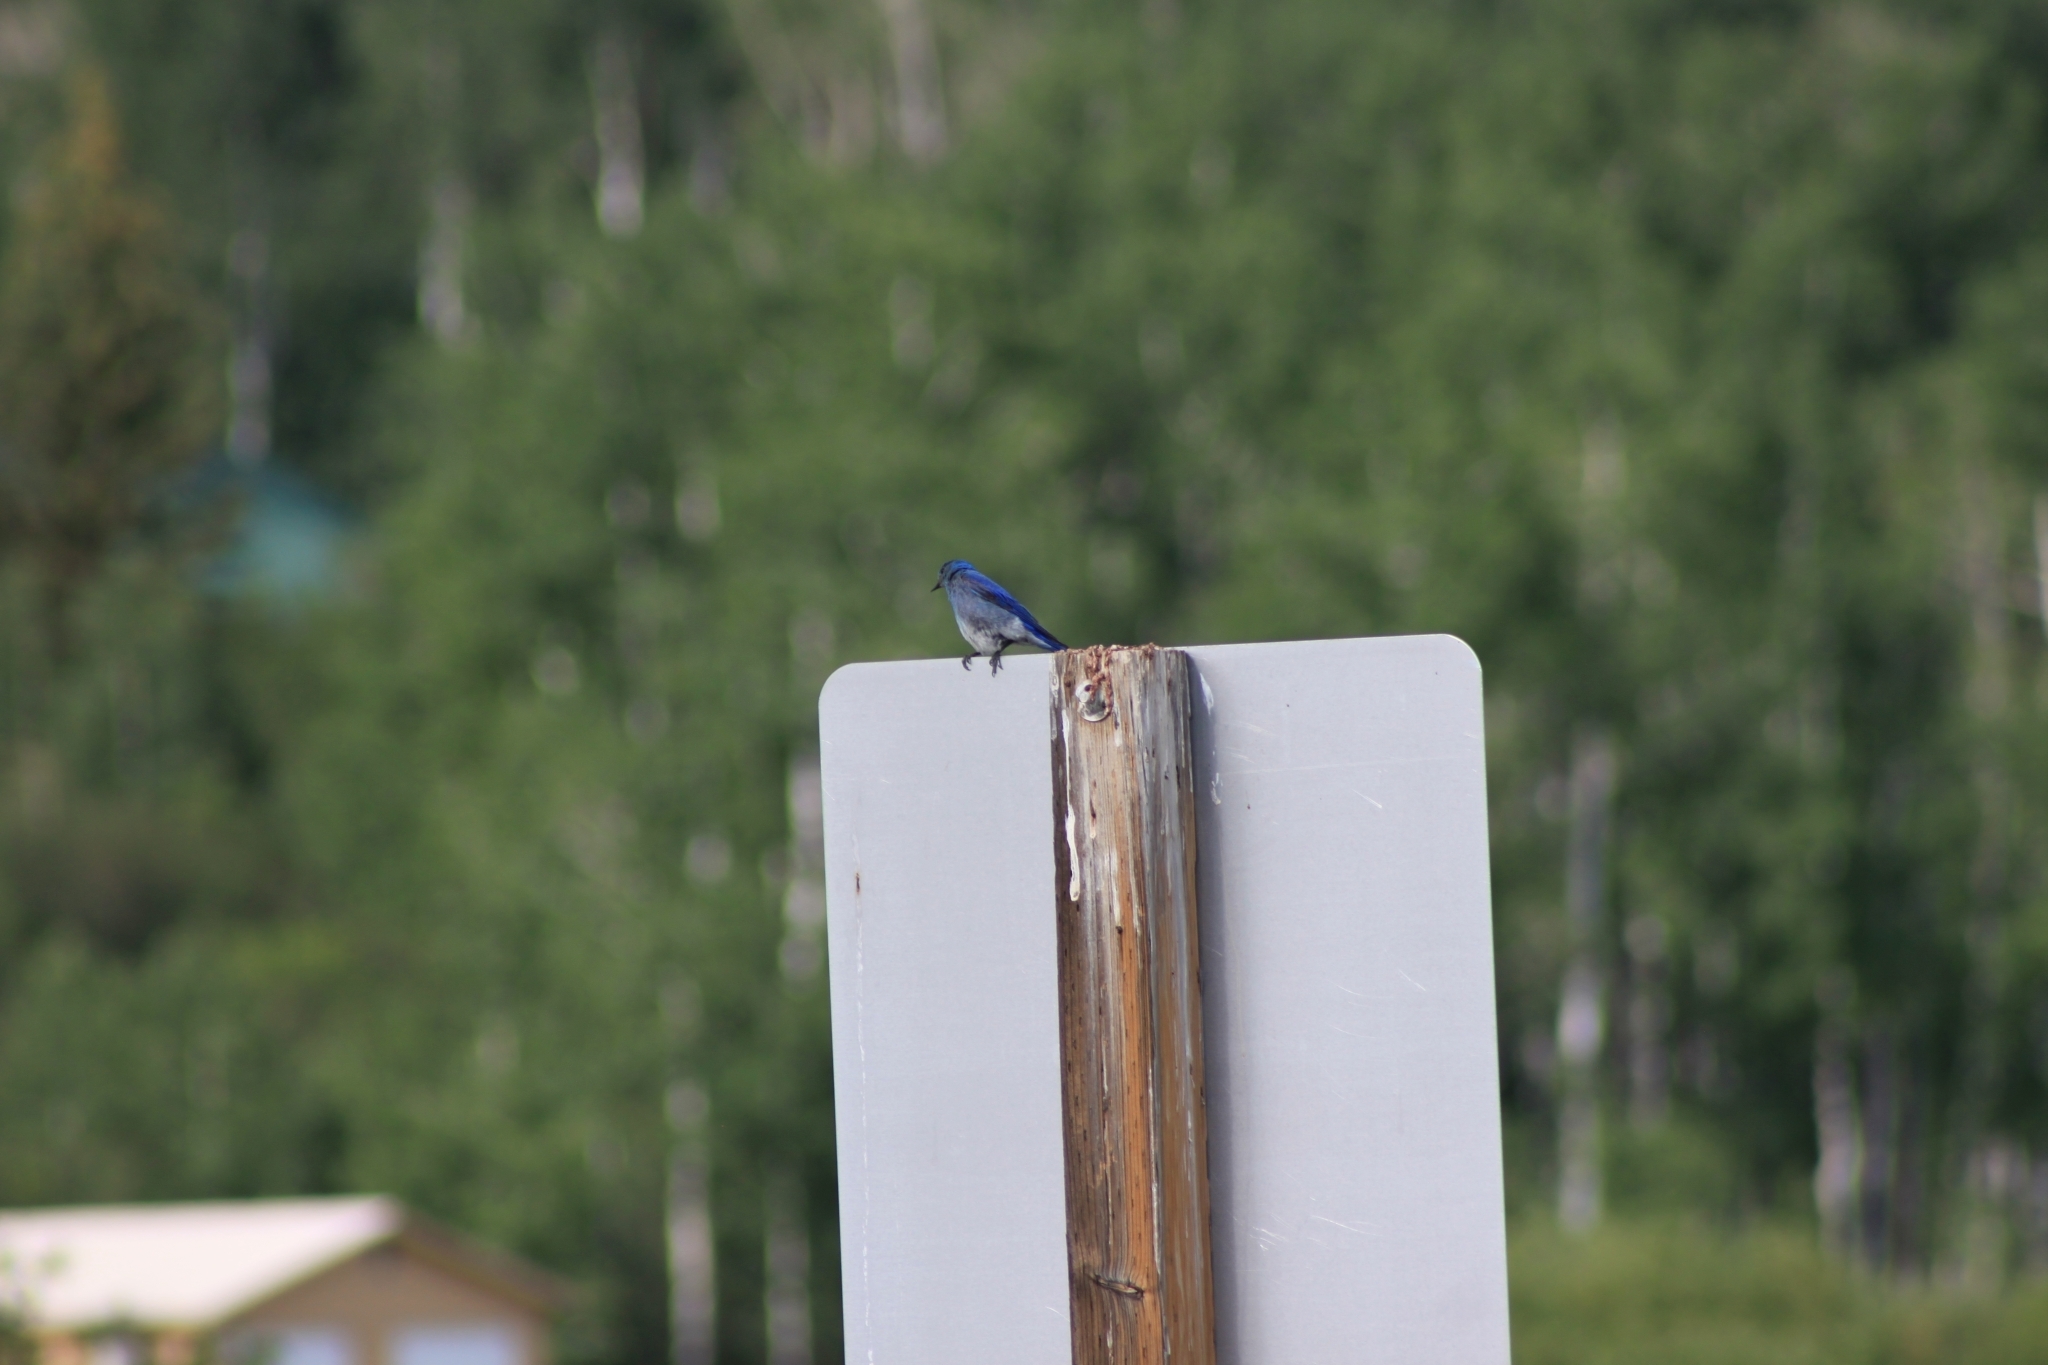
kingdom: Animalia
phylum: Chordata
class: Aves
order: Passeriformes
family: Turdidae
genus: Sialia
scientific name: Sialia currucoides
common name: Mountain bluebird
